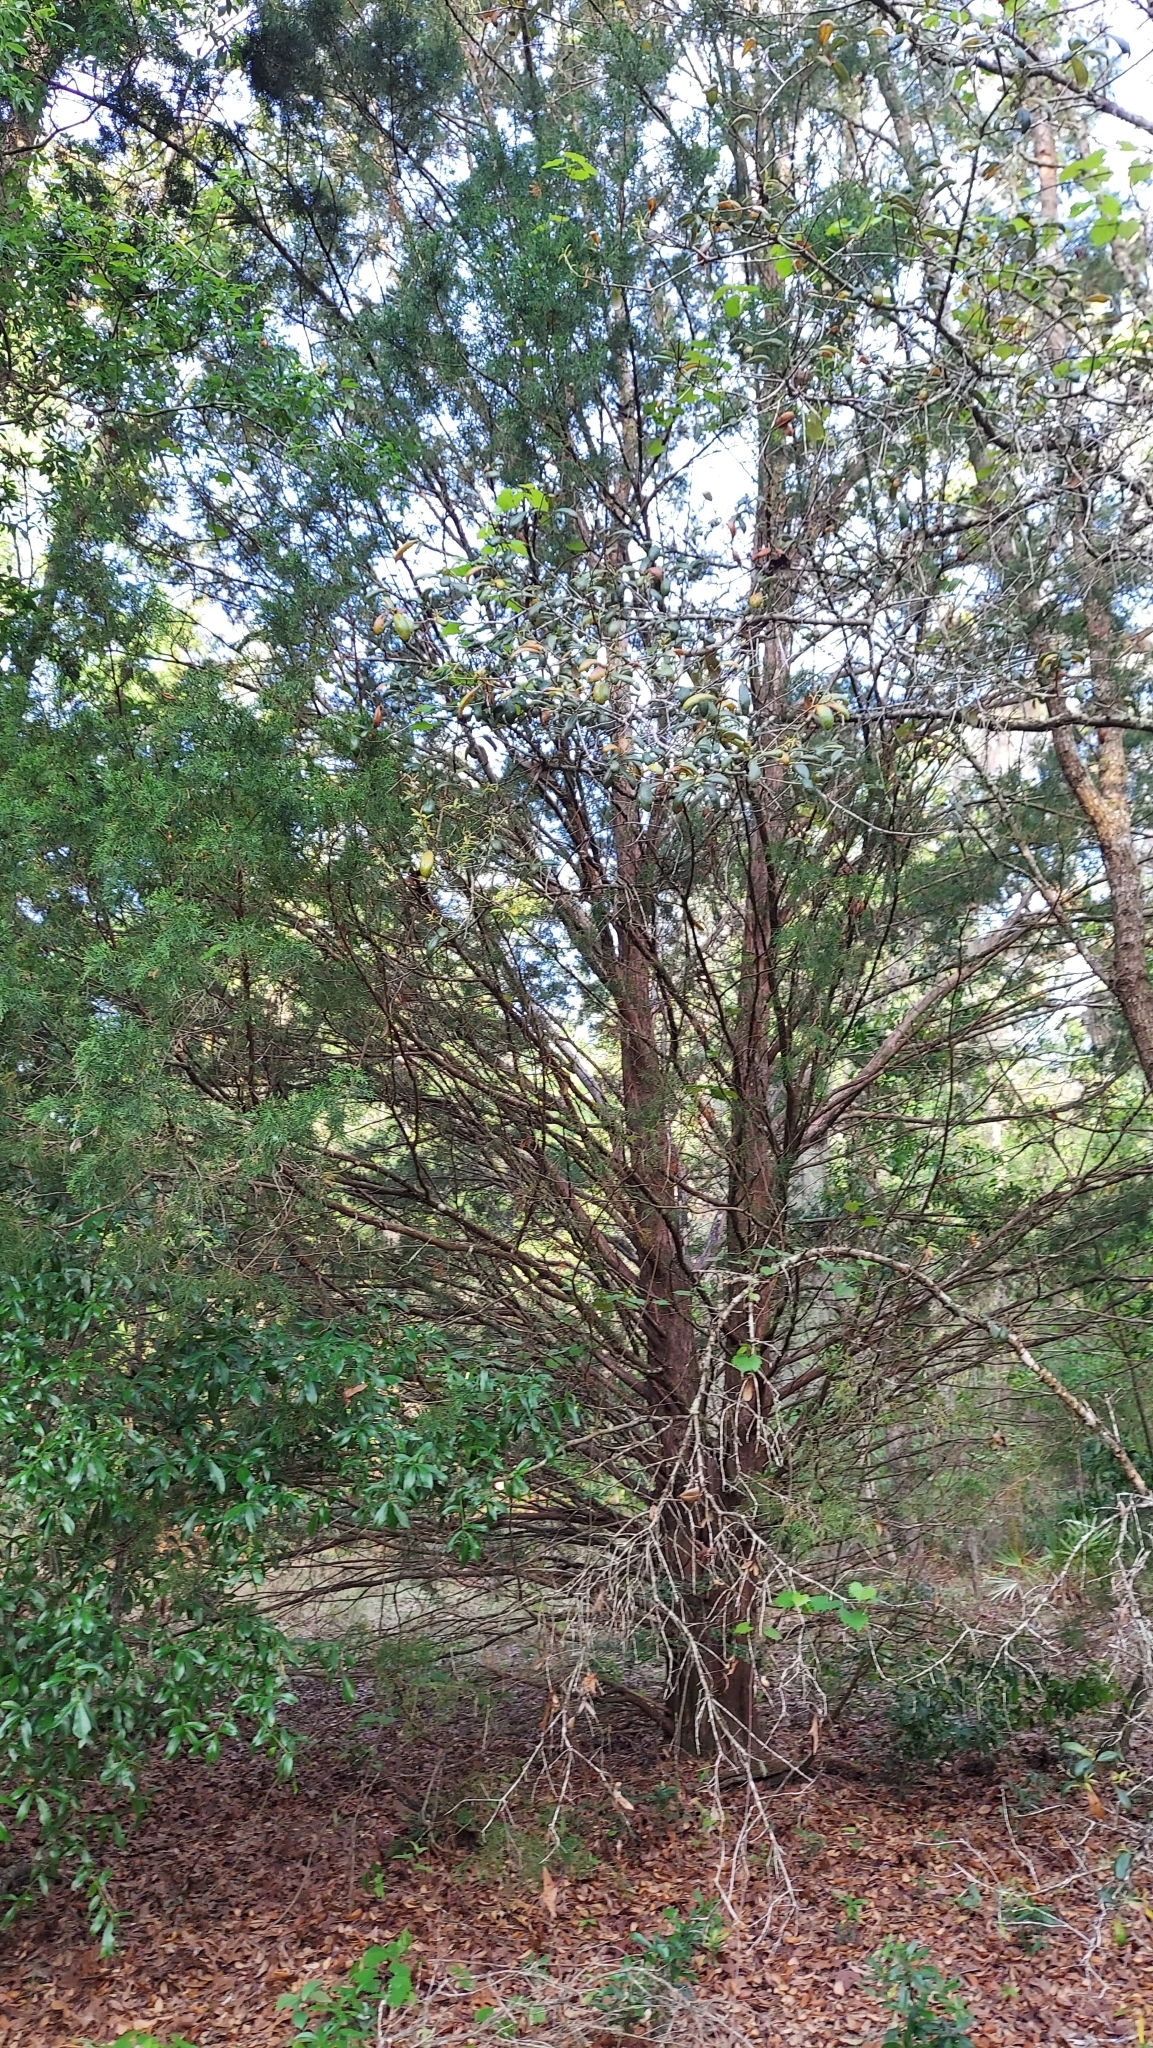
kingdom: Plantae
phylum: Tracheophyta
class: Pinopsida
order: Pinales
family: Cupressaceae
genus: Juniperus
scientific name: Juniperus virginiana
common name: Red juniper
